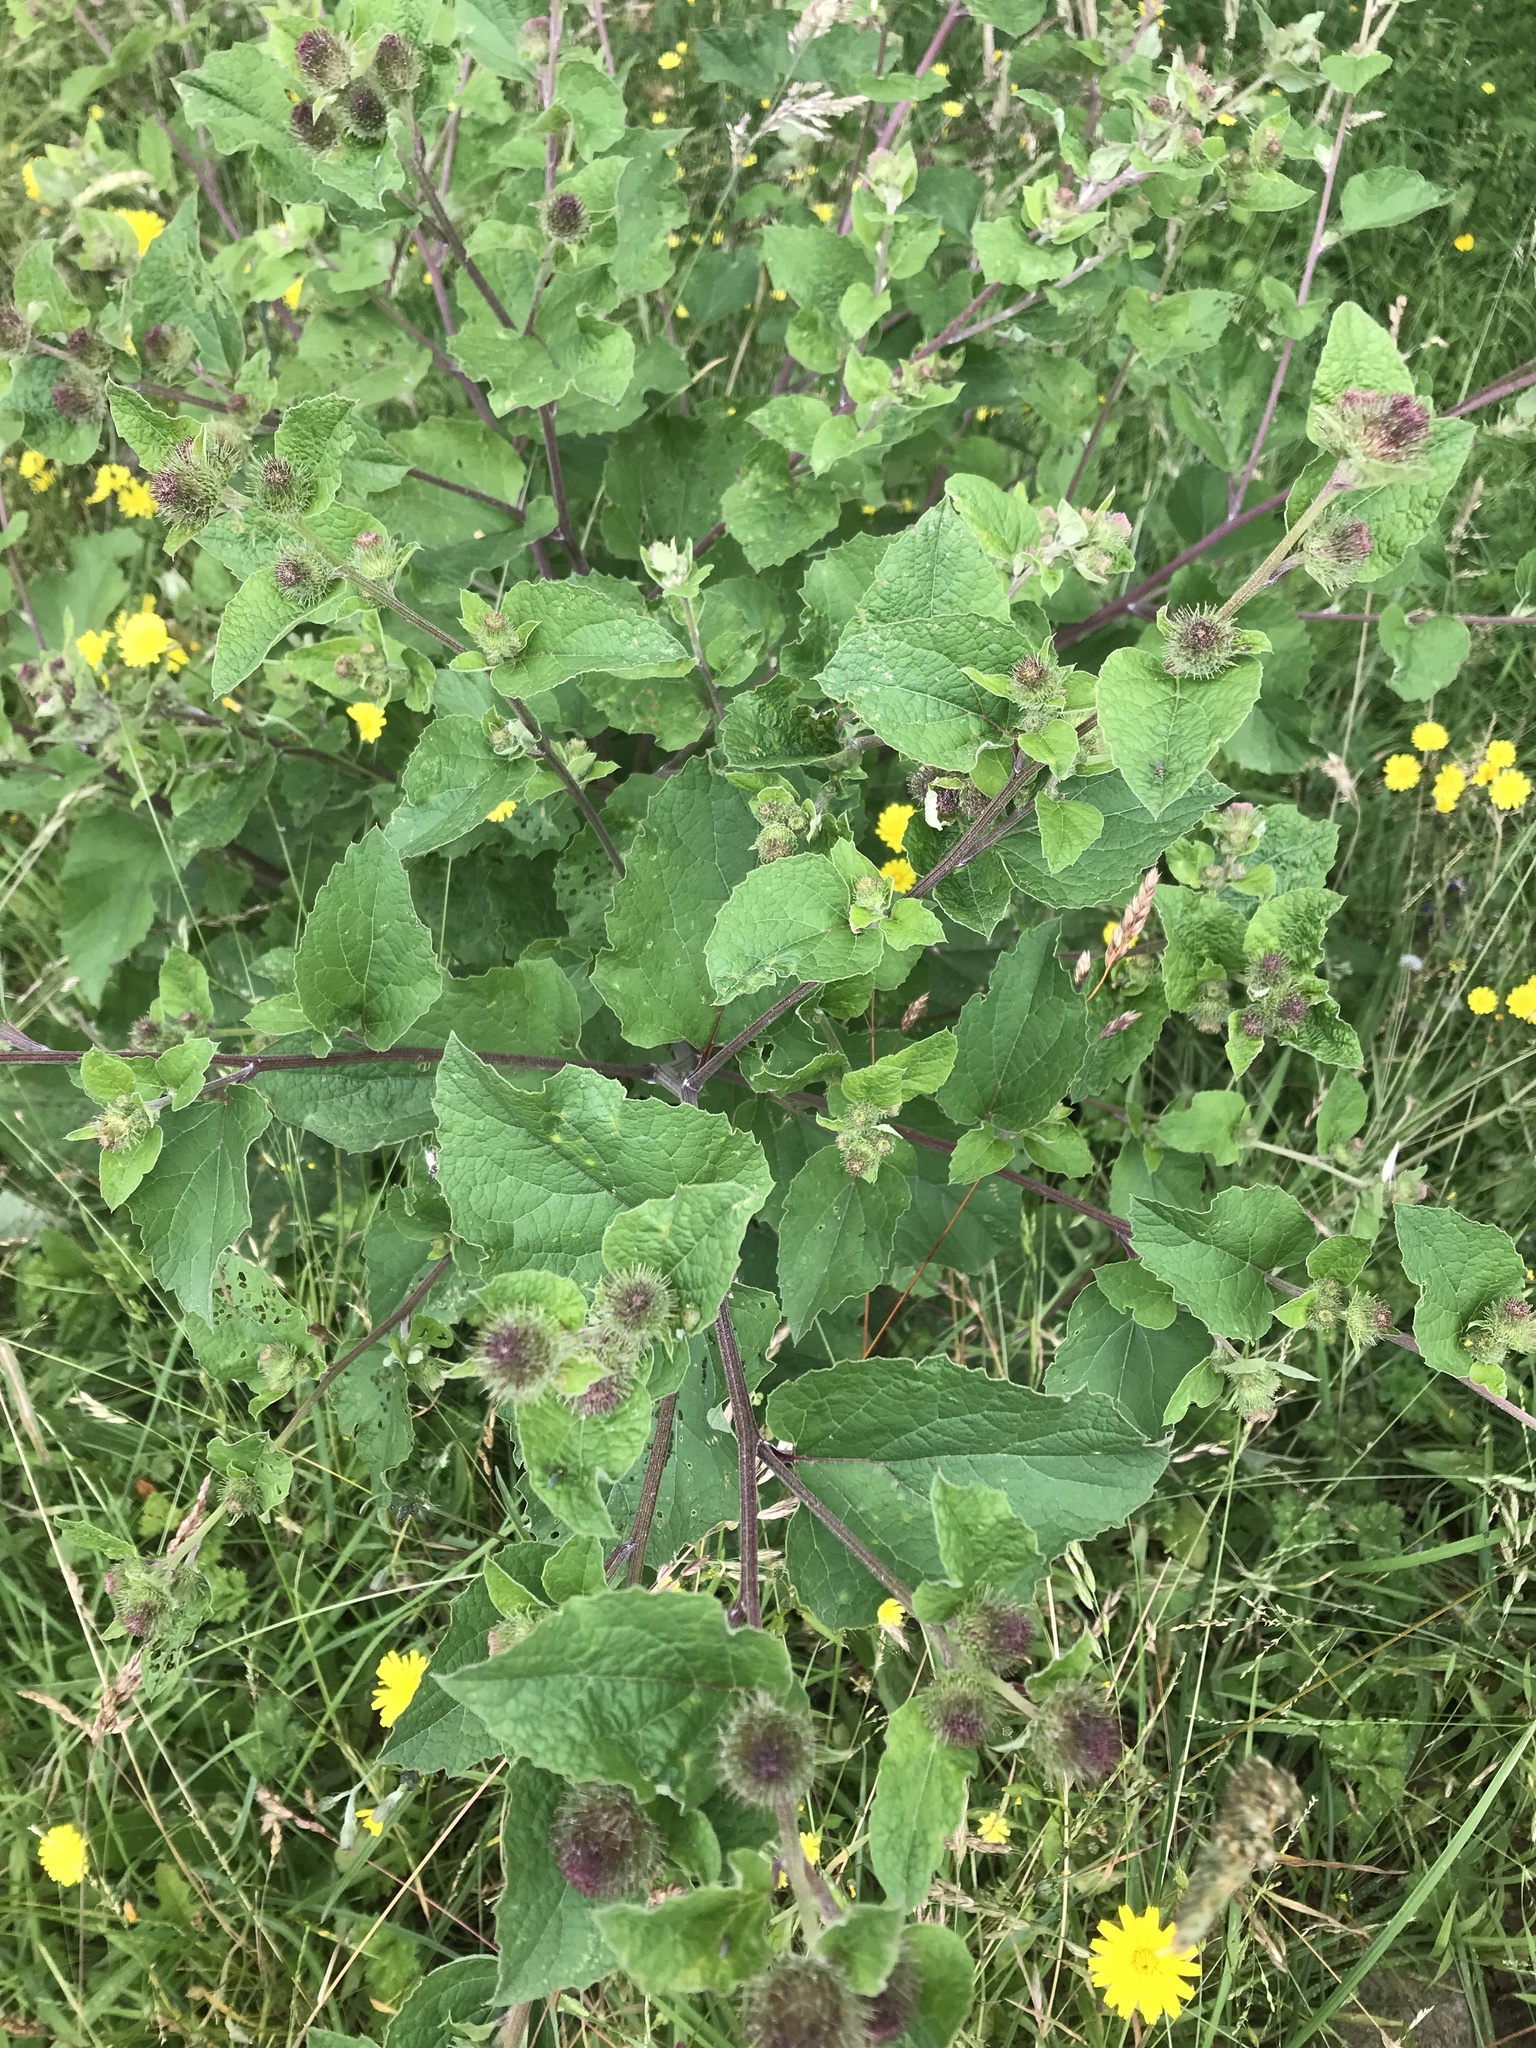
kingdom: Plantae
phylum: Tracheophyta
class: Magnoliopsida
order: Asterales
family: Asteraceae
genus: Arctium
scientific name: Arctium minus
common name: Lesser burdock
